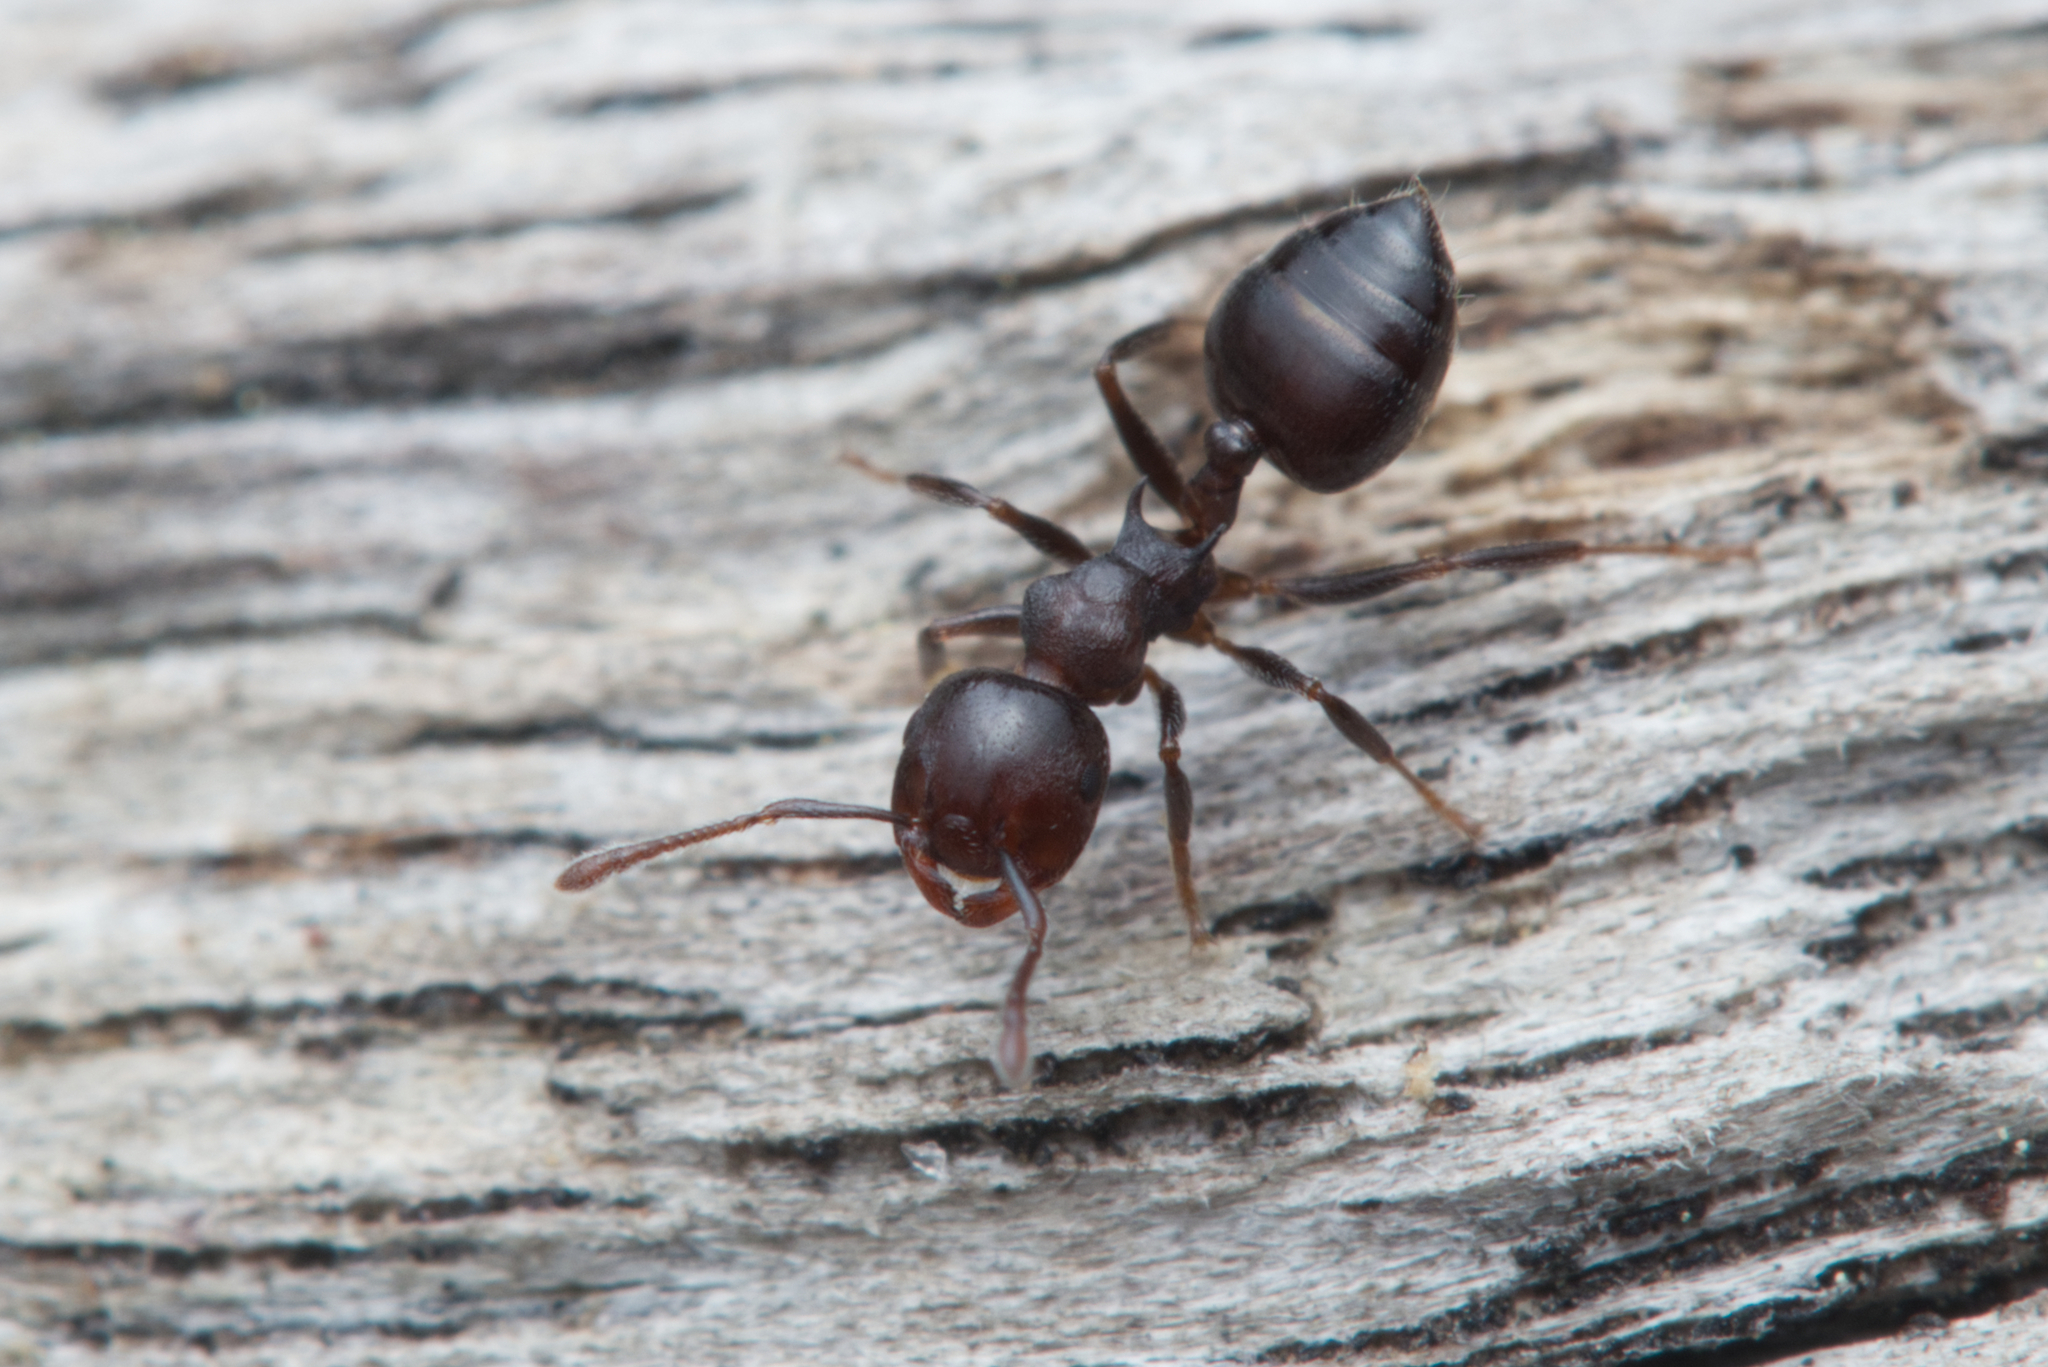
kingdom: Animalia
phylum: Arthropoda
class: Insecta
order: Hymenoptera
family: Formicidae
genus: Crematogaster
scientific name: Crematogaster cornigera
